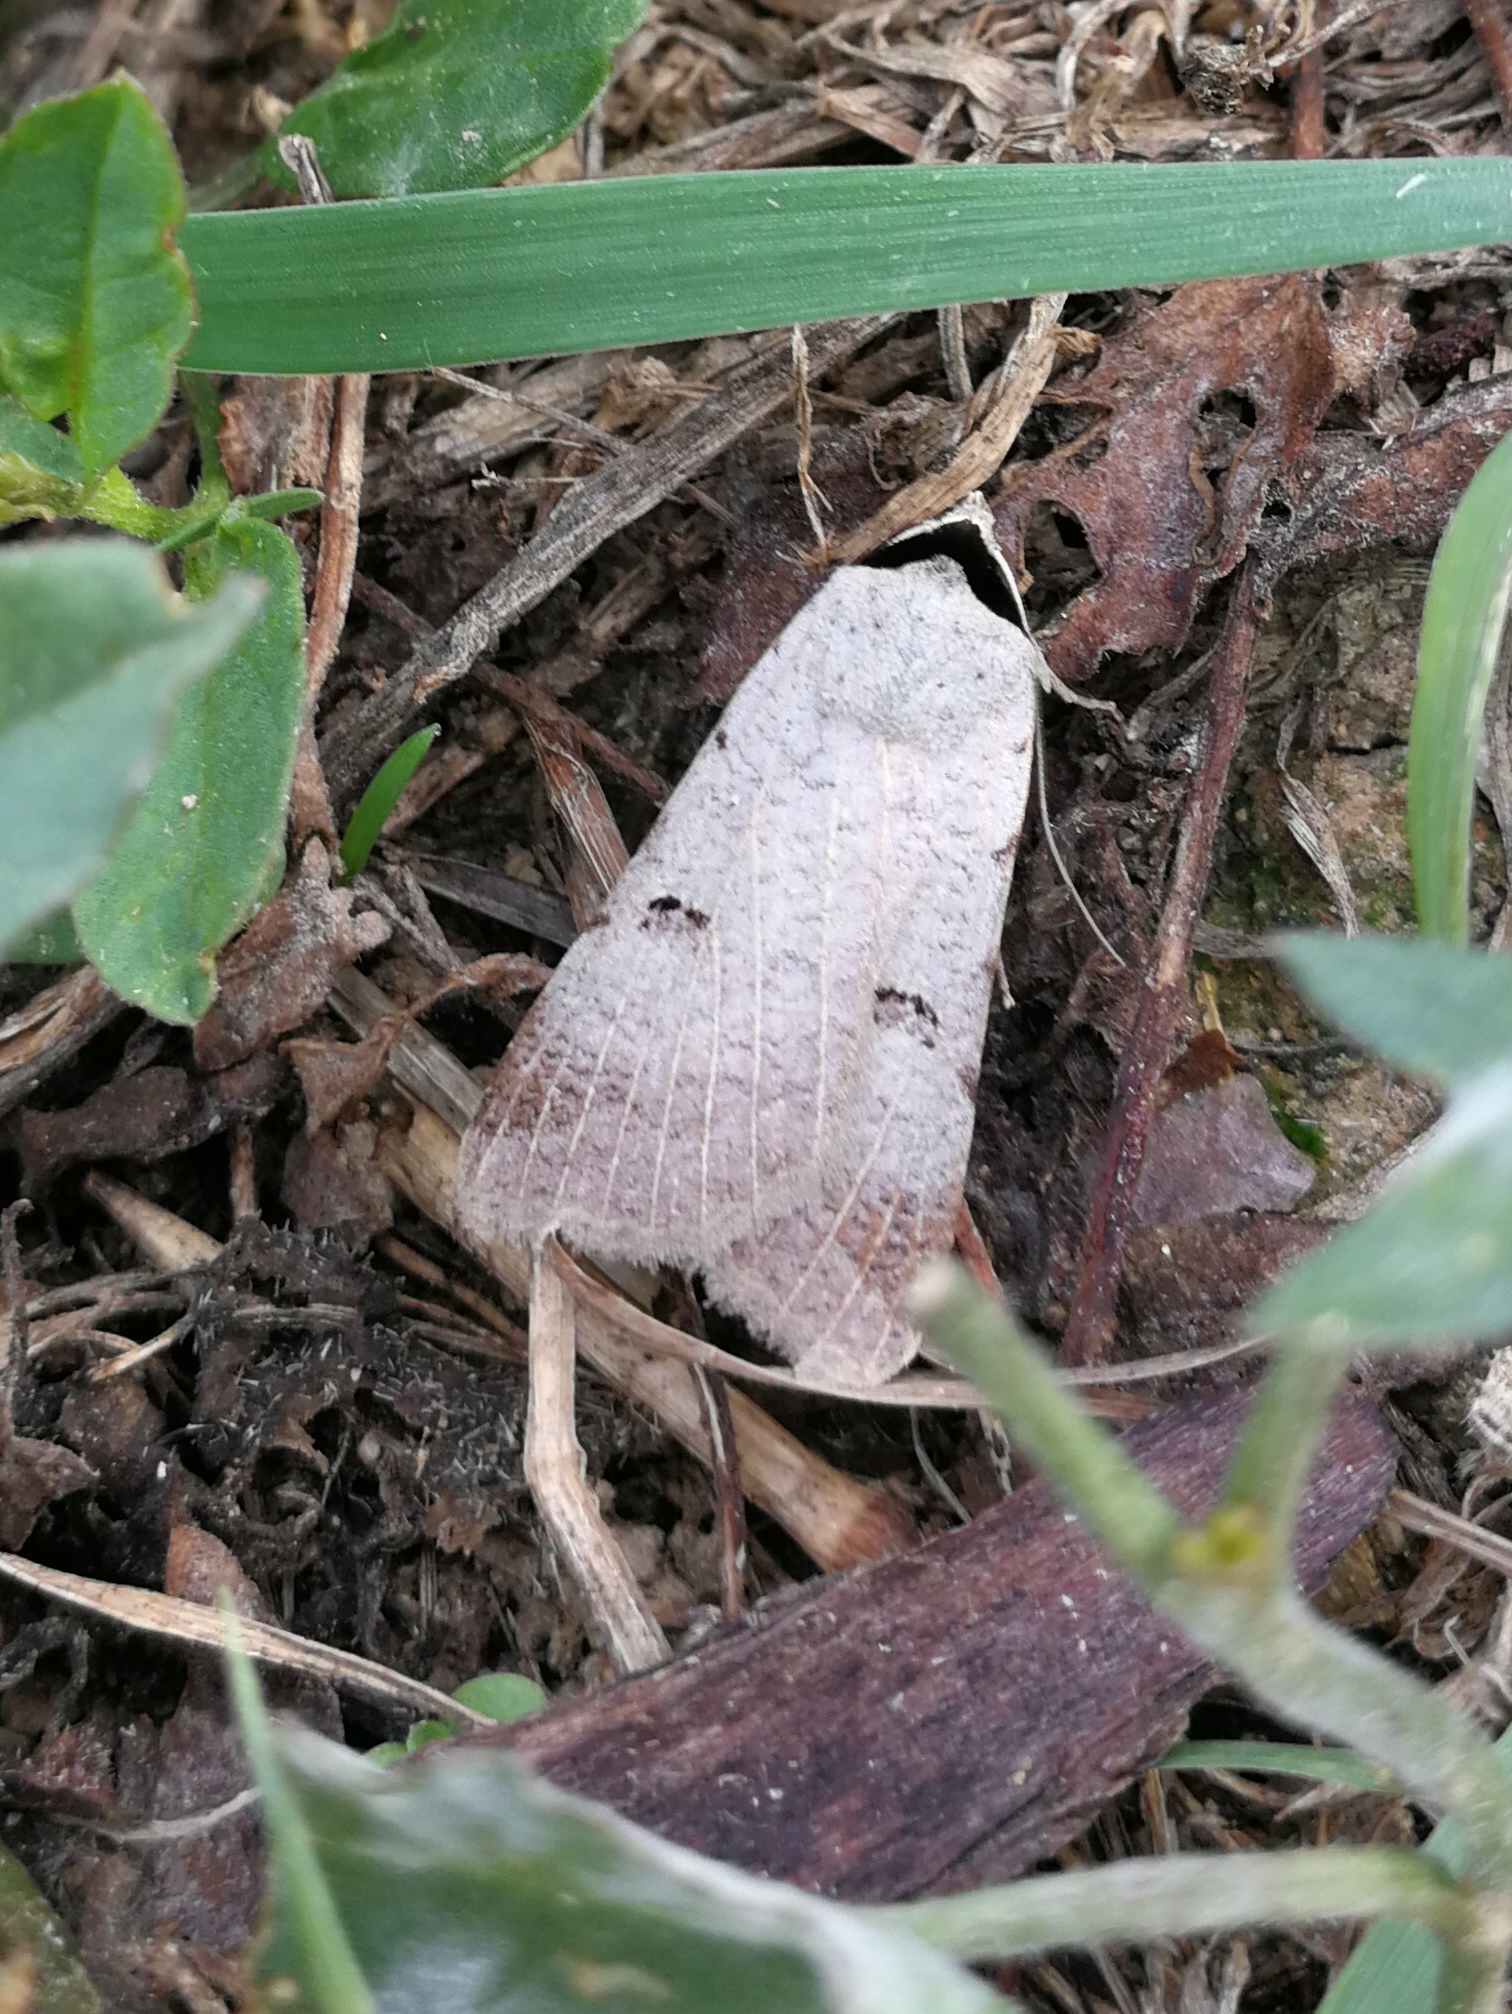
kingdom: Animalia
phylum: Arthropoda
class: Insecta
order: Lepidoptera
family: Erebidae
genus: Lygephila
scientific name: Lygephila craccae
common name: Scarce blackneck
